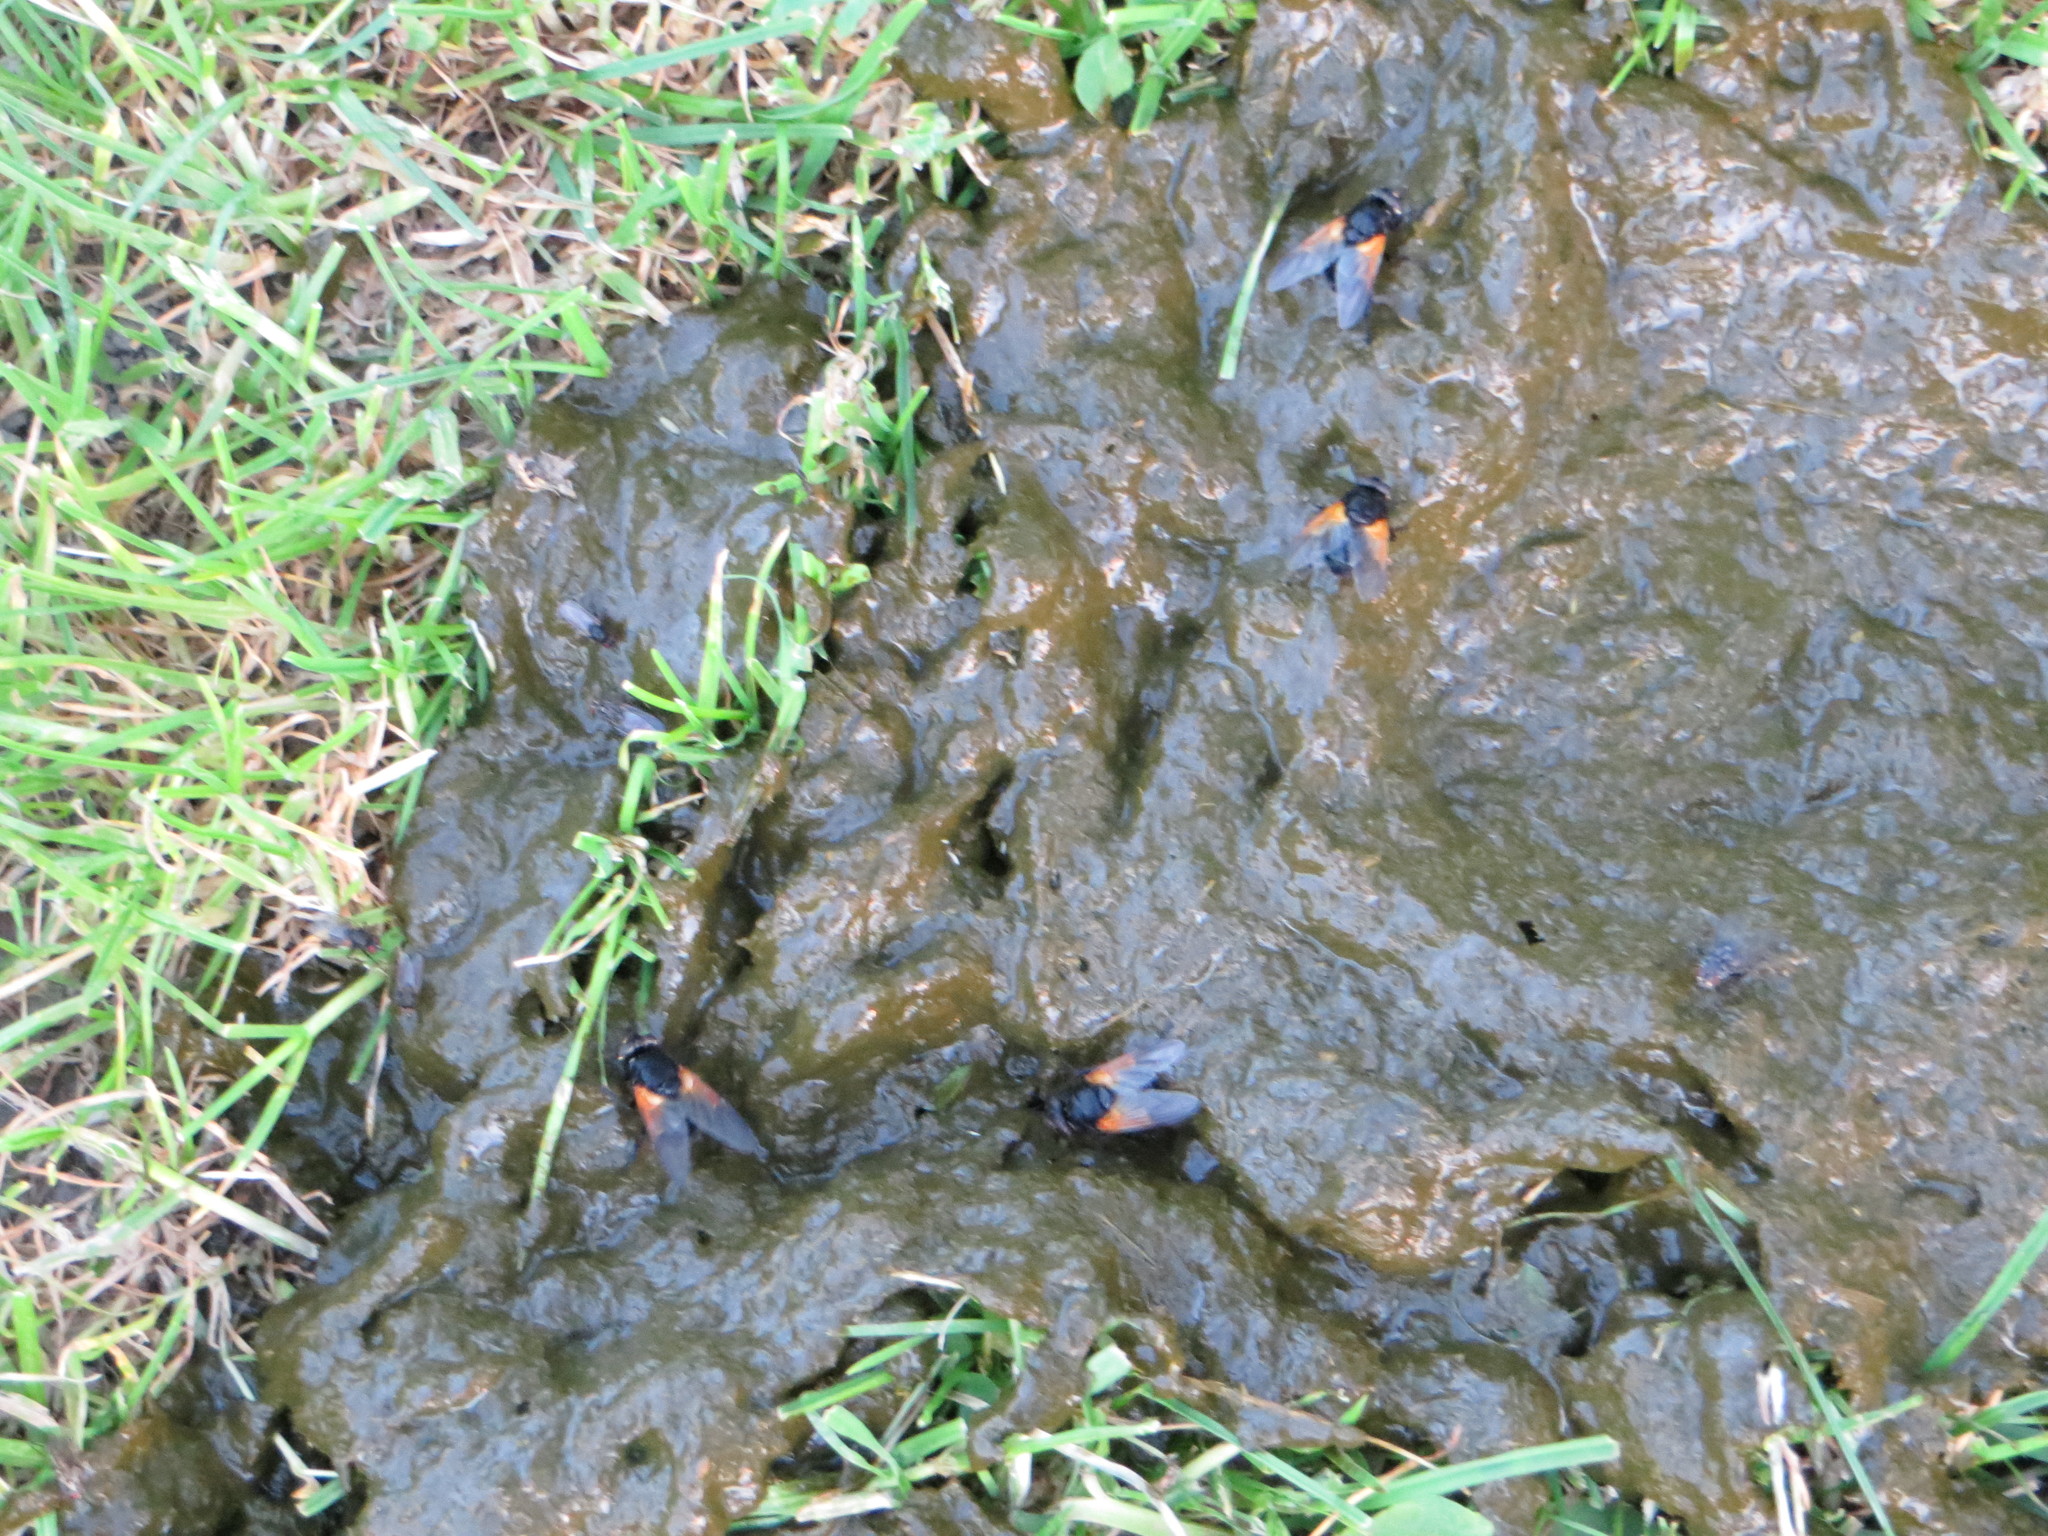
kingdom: Animalia
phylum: Arthropoda
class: Insecta
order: Diptera
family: Muscidae
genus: Mesembrina
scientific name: Mesembrina meridiana
